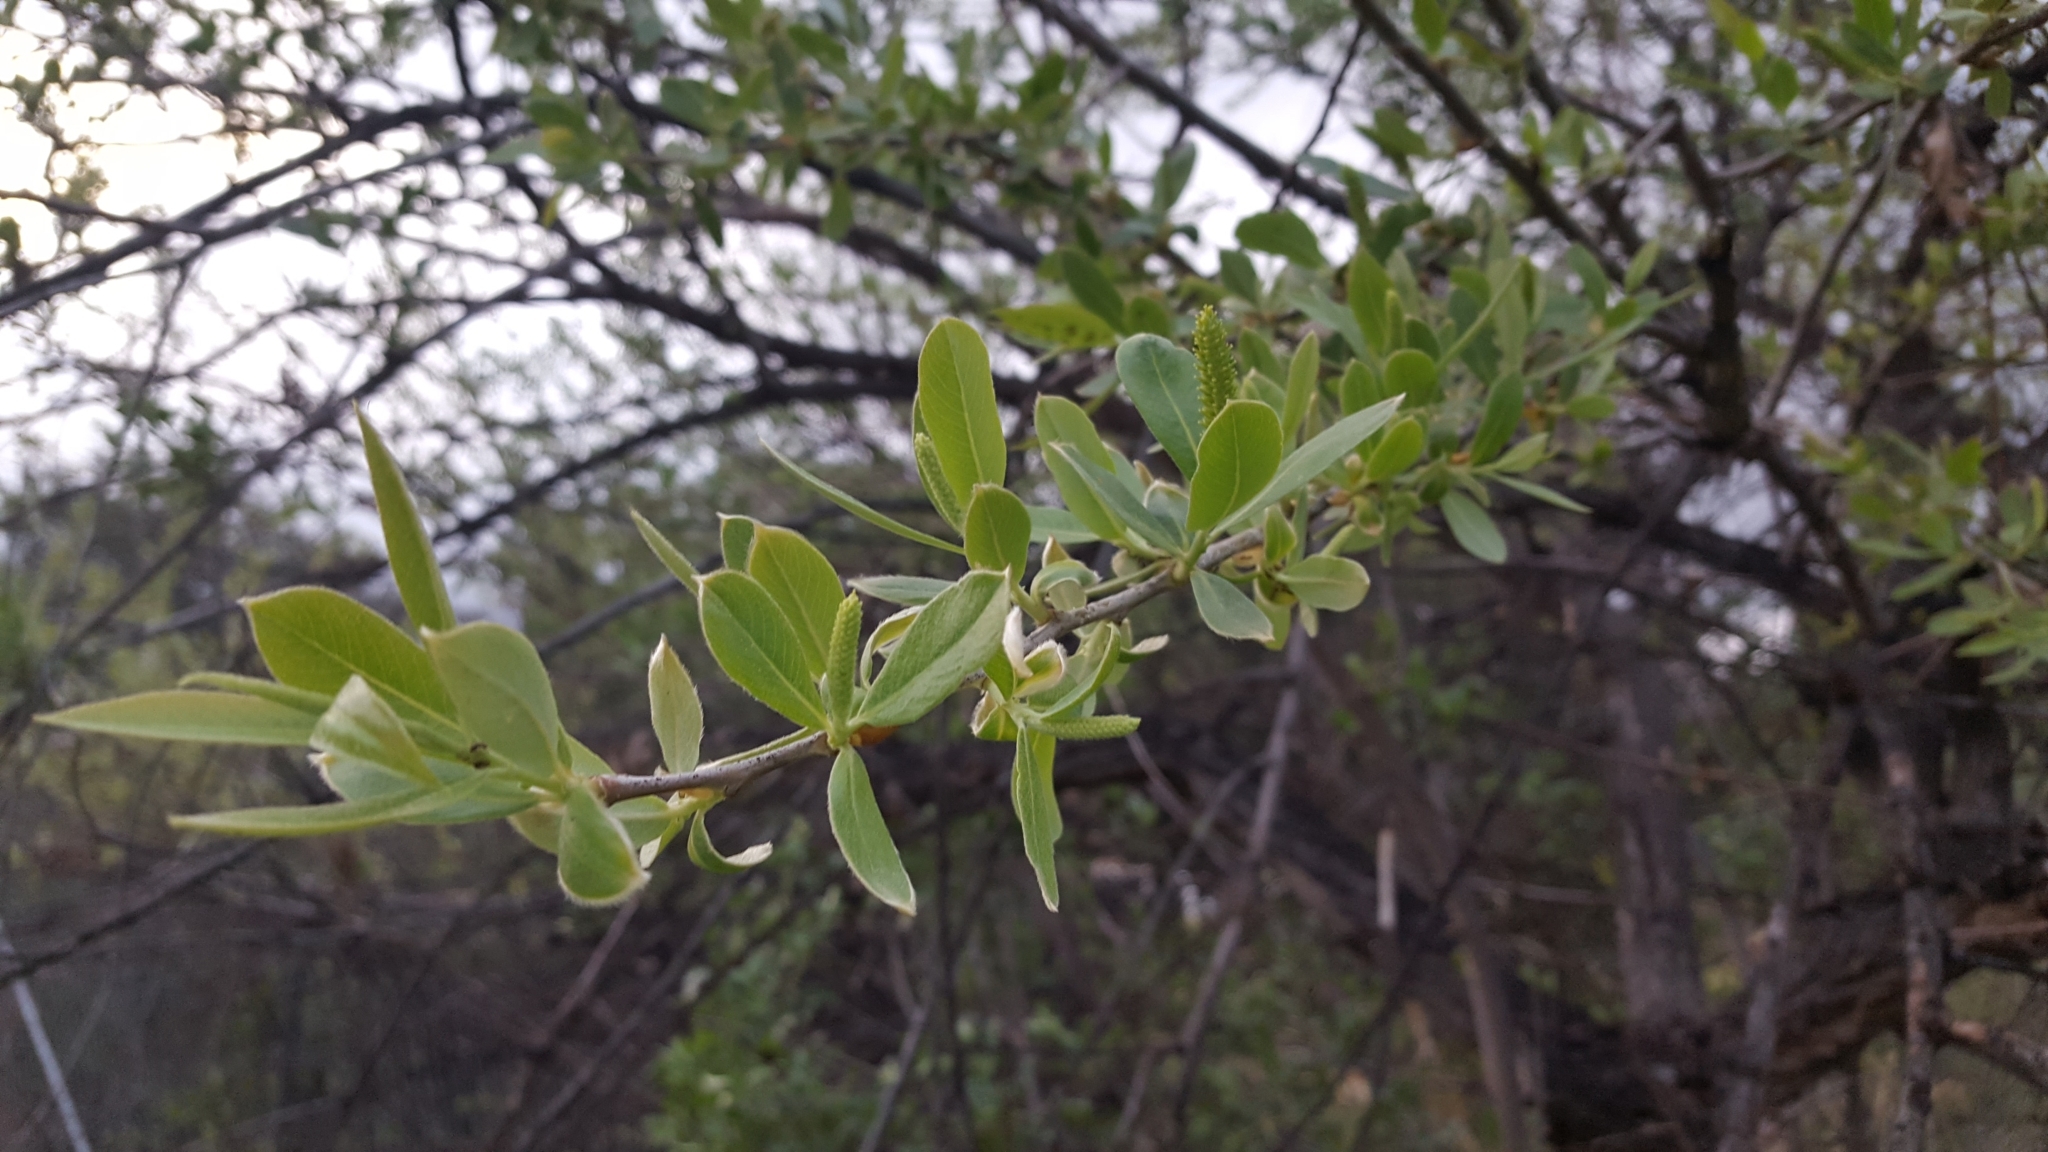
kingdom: Plantae
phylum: Tracheophyta
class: Magnoliopsida
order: Malpighiales
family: Salicaceae
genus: Salix
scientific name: Salix laevigata
